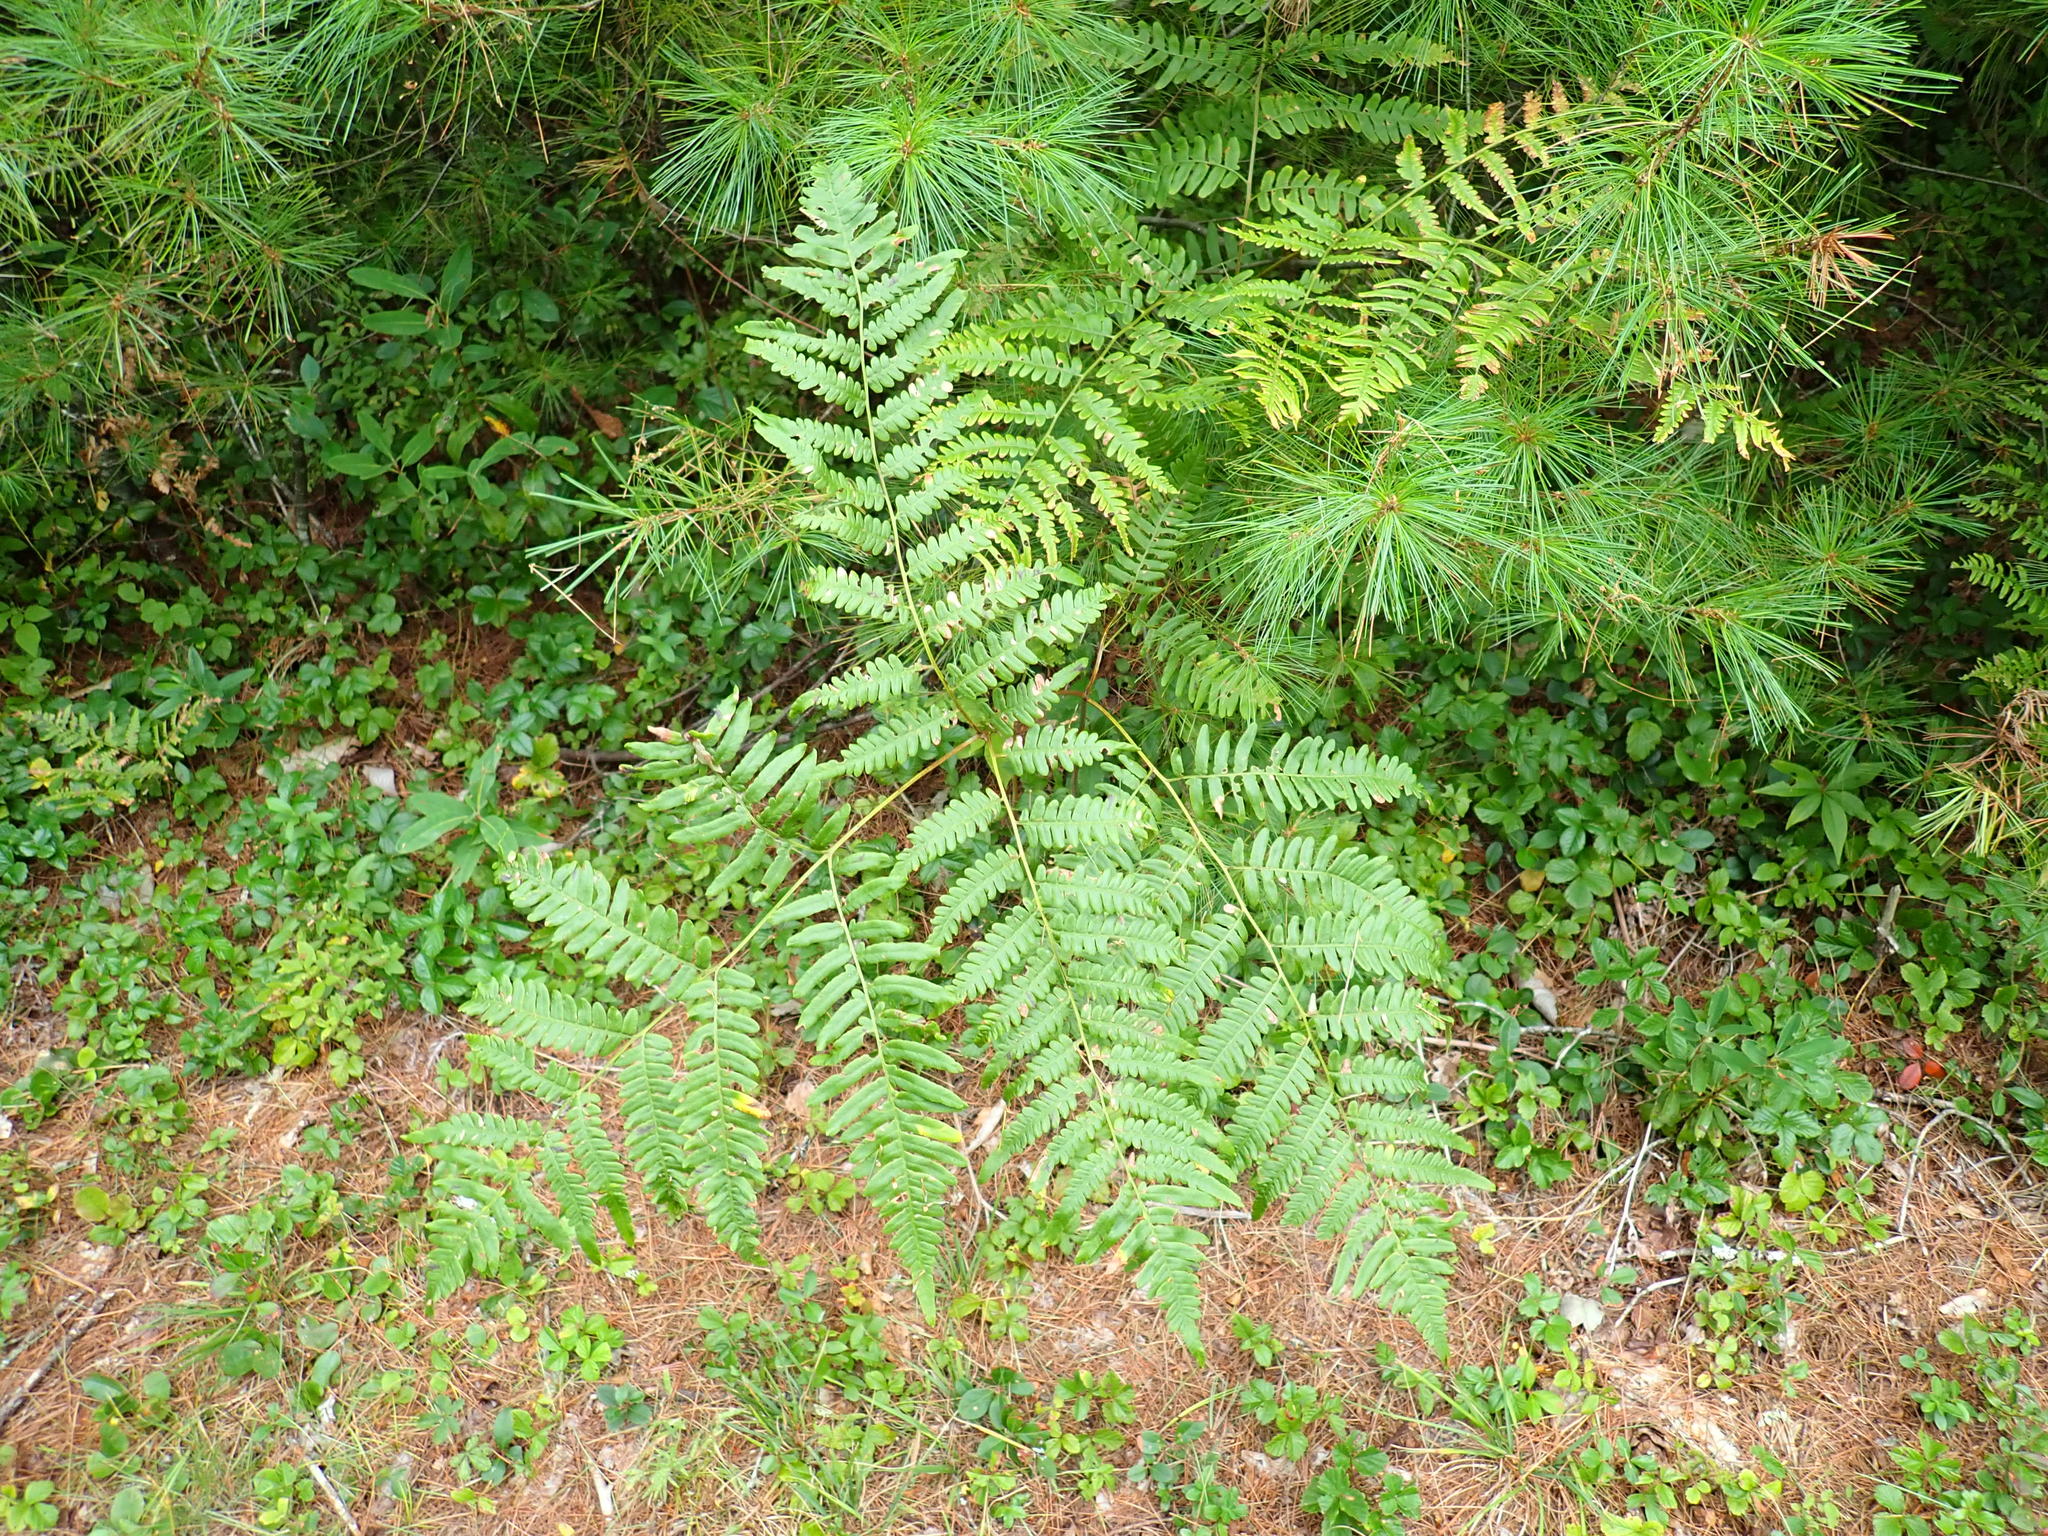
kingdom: Plantae
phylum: Tracheophyta
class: Polypodiopsida
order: Polypodiales
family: Dennstaedtiaceae
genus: Pteridium
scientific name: Pteridium aquilinum
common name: Bracken
